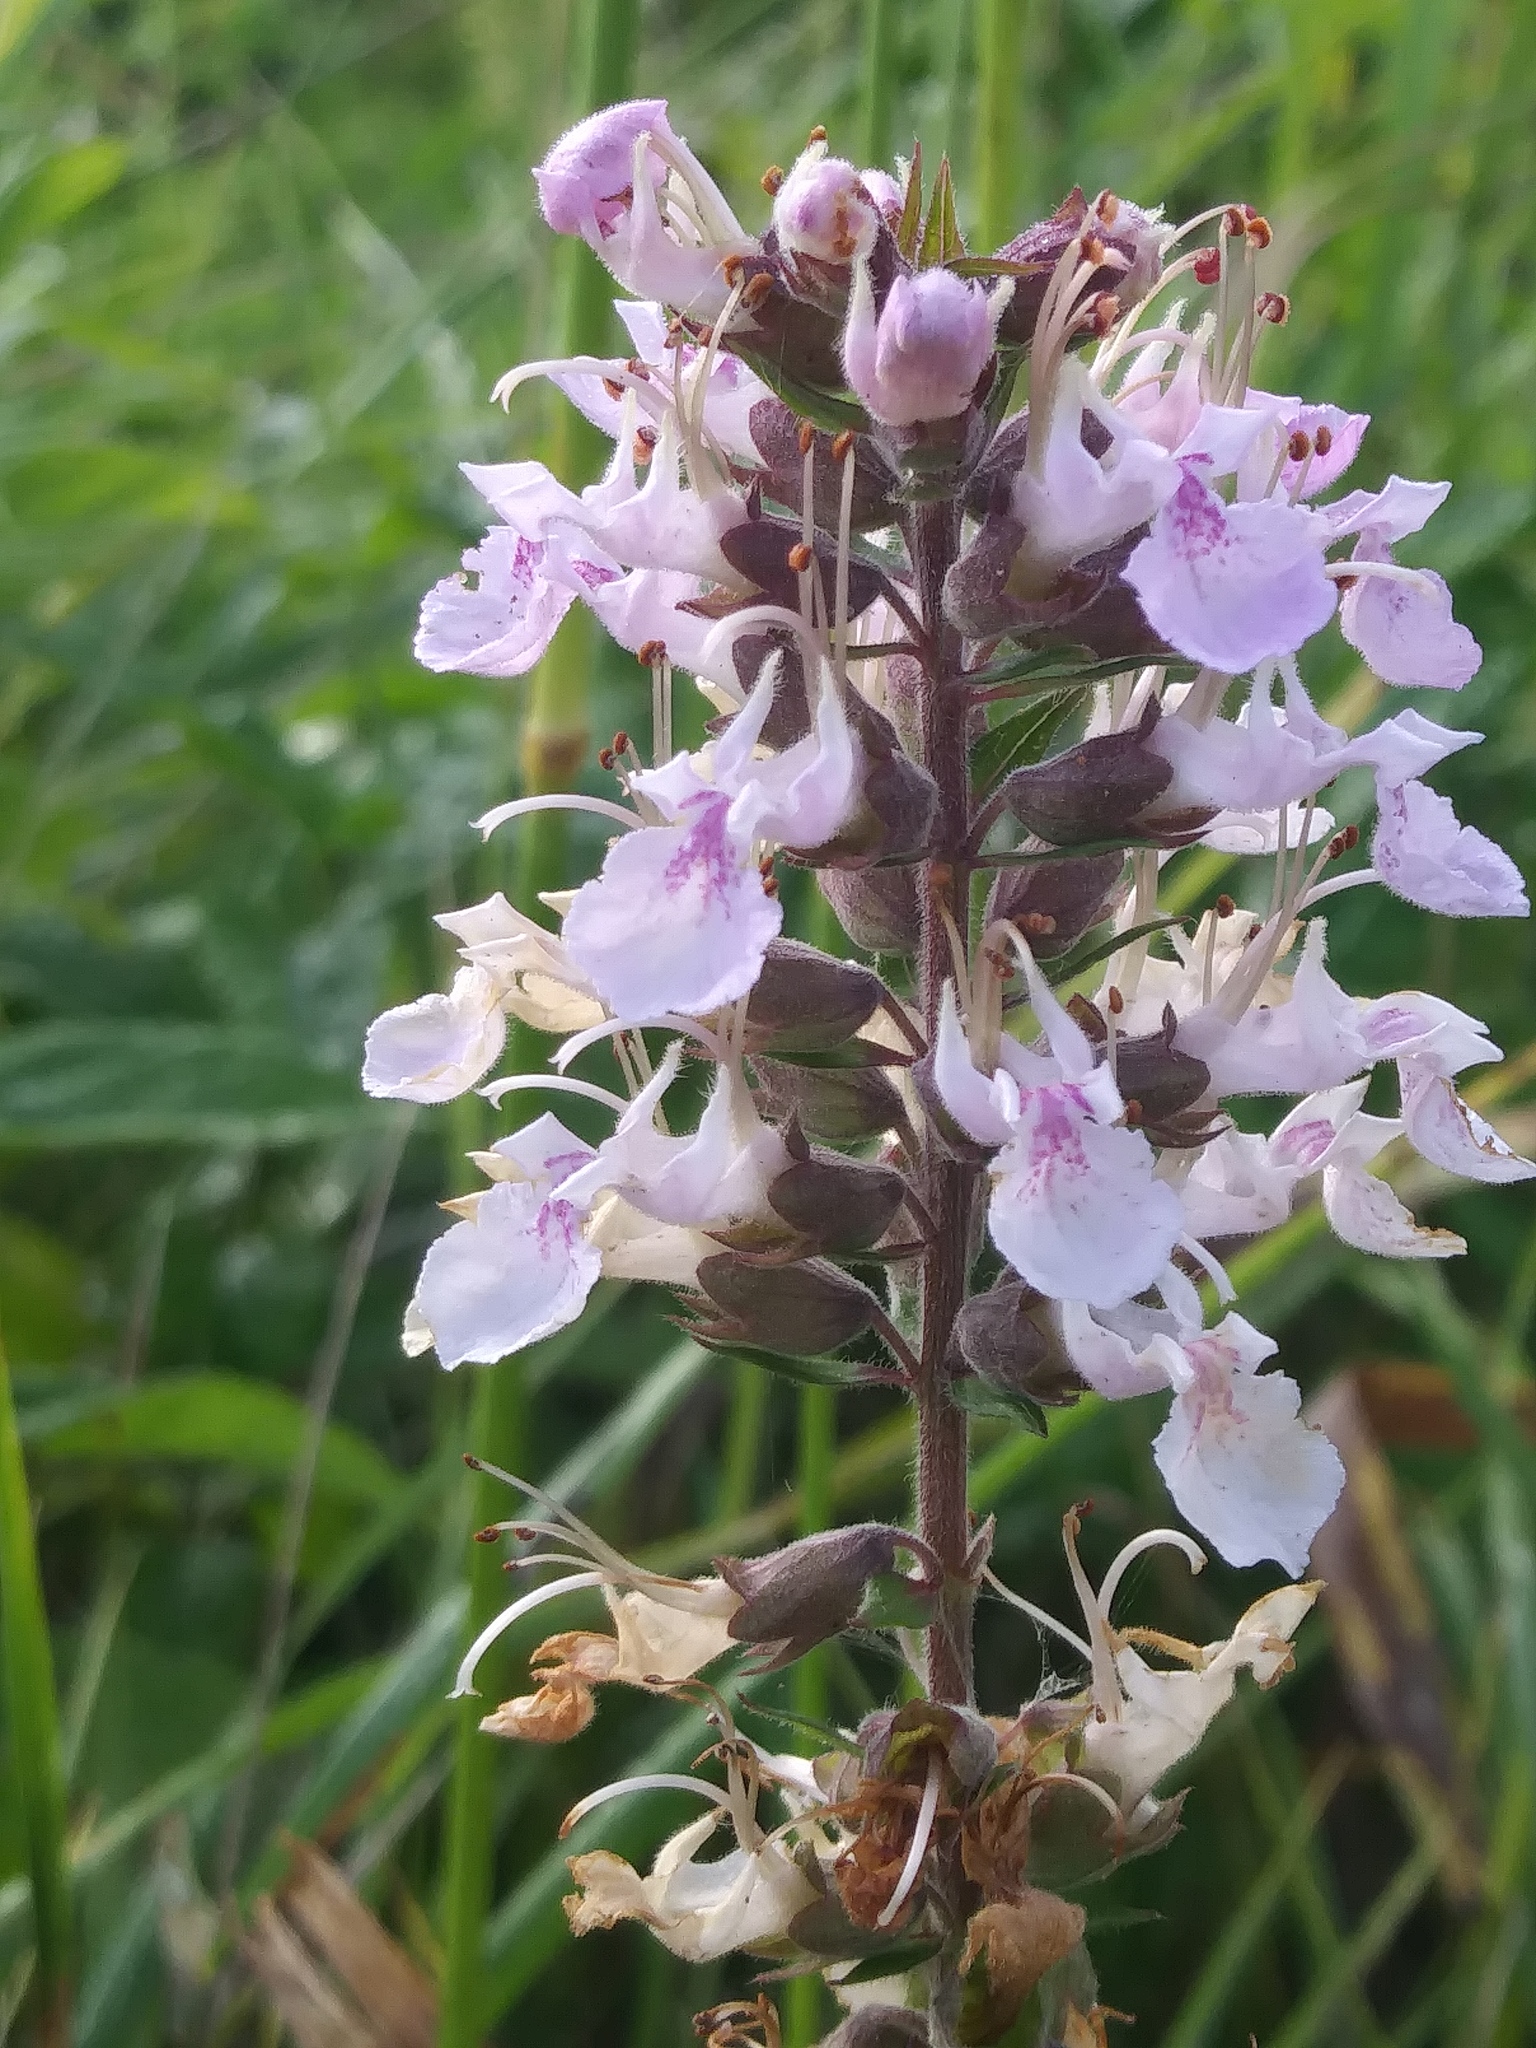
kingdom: Plantae
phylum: Tracheophyta
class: Magnoliopsida
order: Lamiales
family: Lamiaceae
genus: Teucrium
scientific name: Teucrium canadense
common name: American germander
